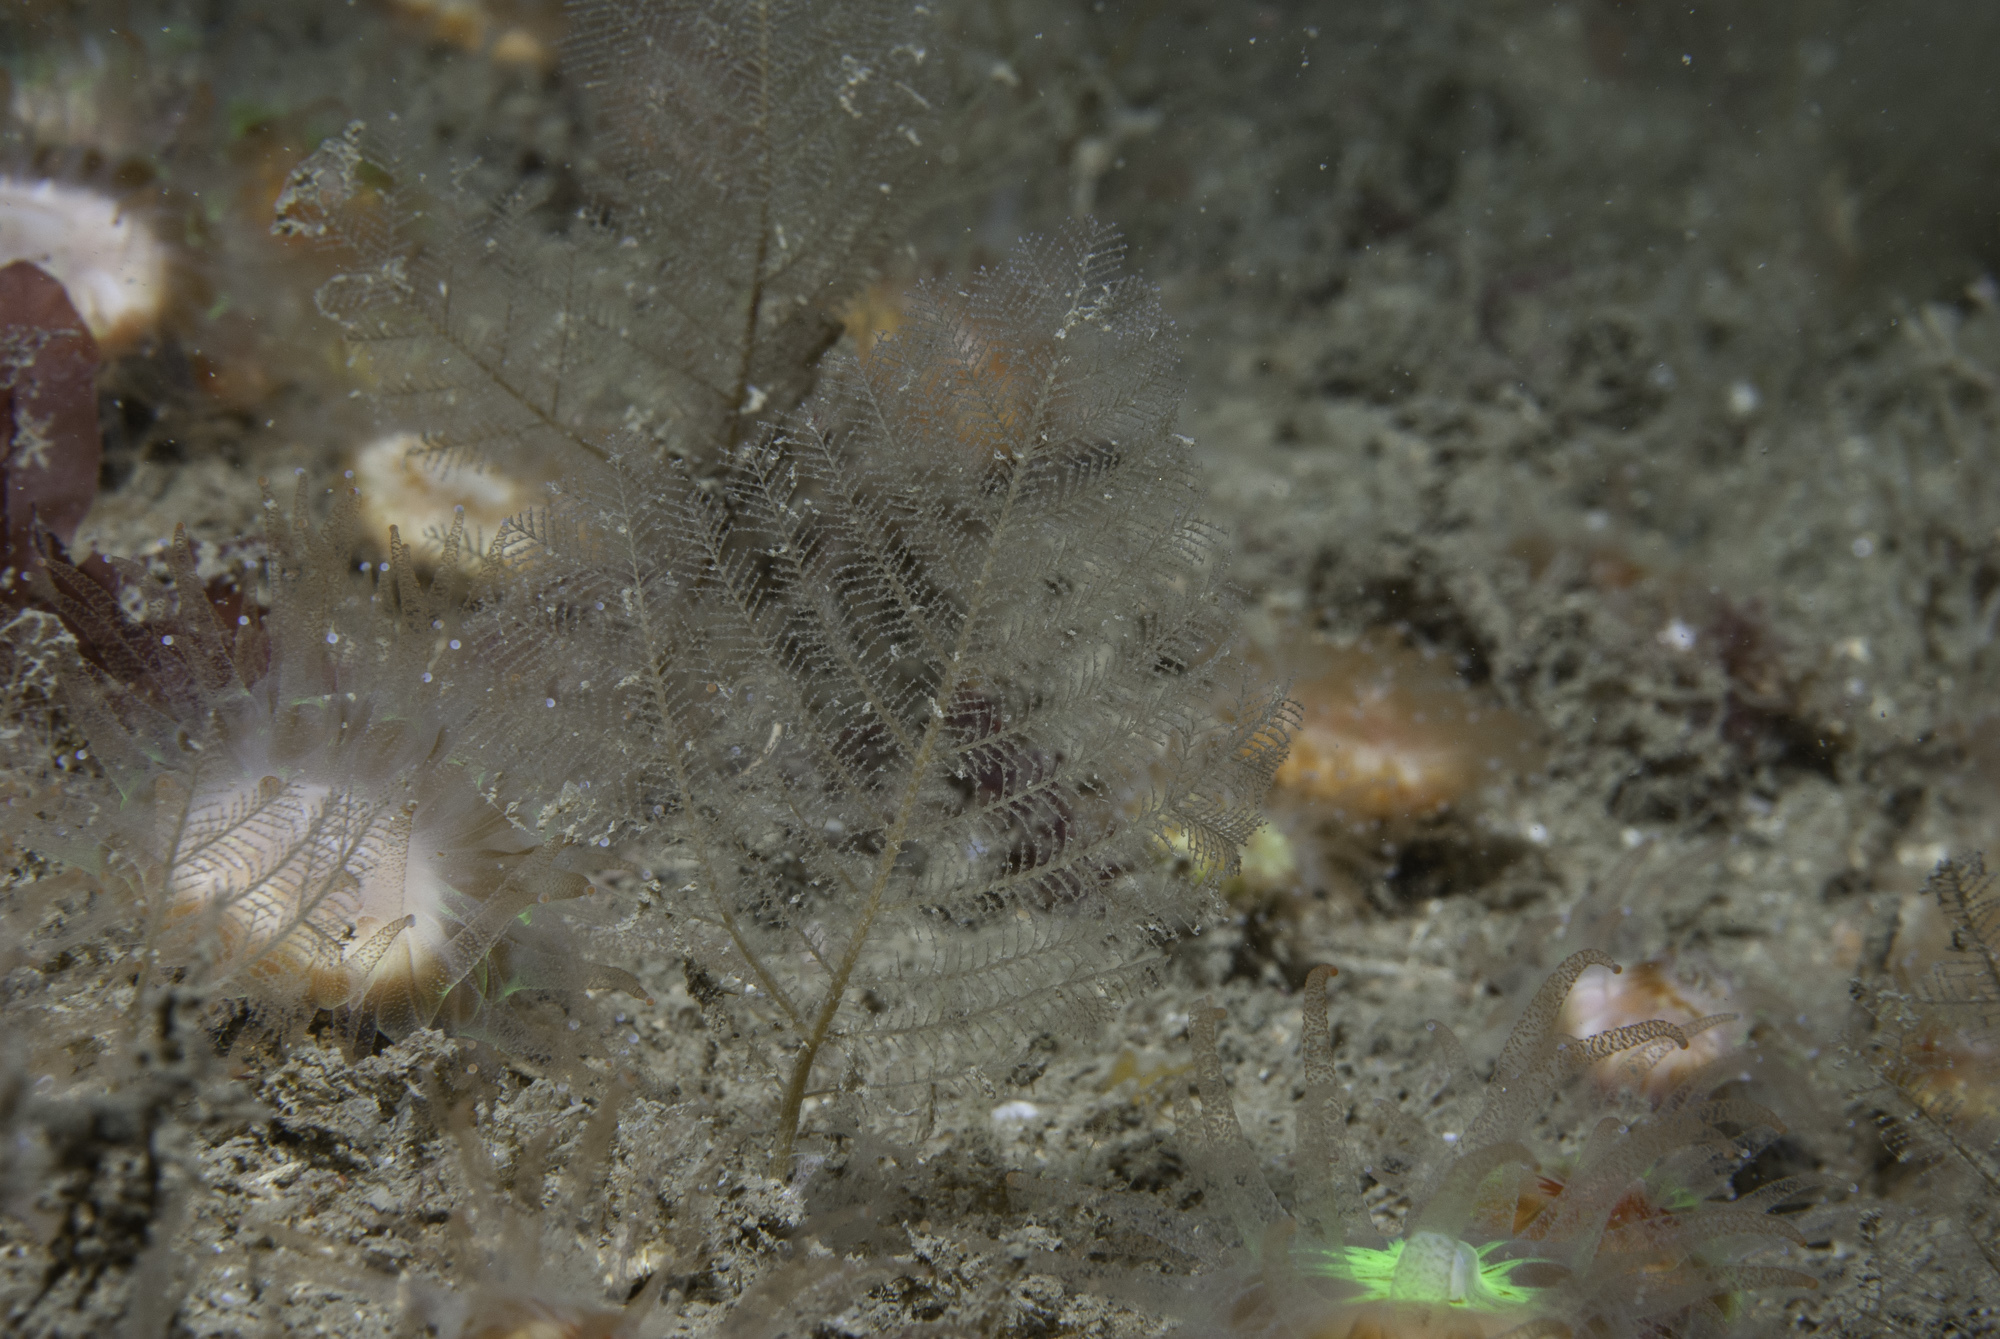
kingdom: Animalia
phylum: Cnidaria
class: Hydrozoa
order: Leptothecata
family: Halopterididae
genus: Polyplumaria
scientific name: Polyplumaria flabellata
